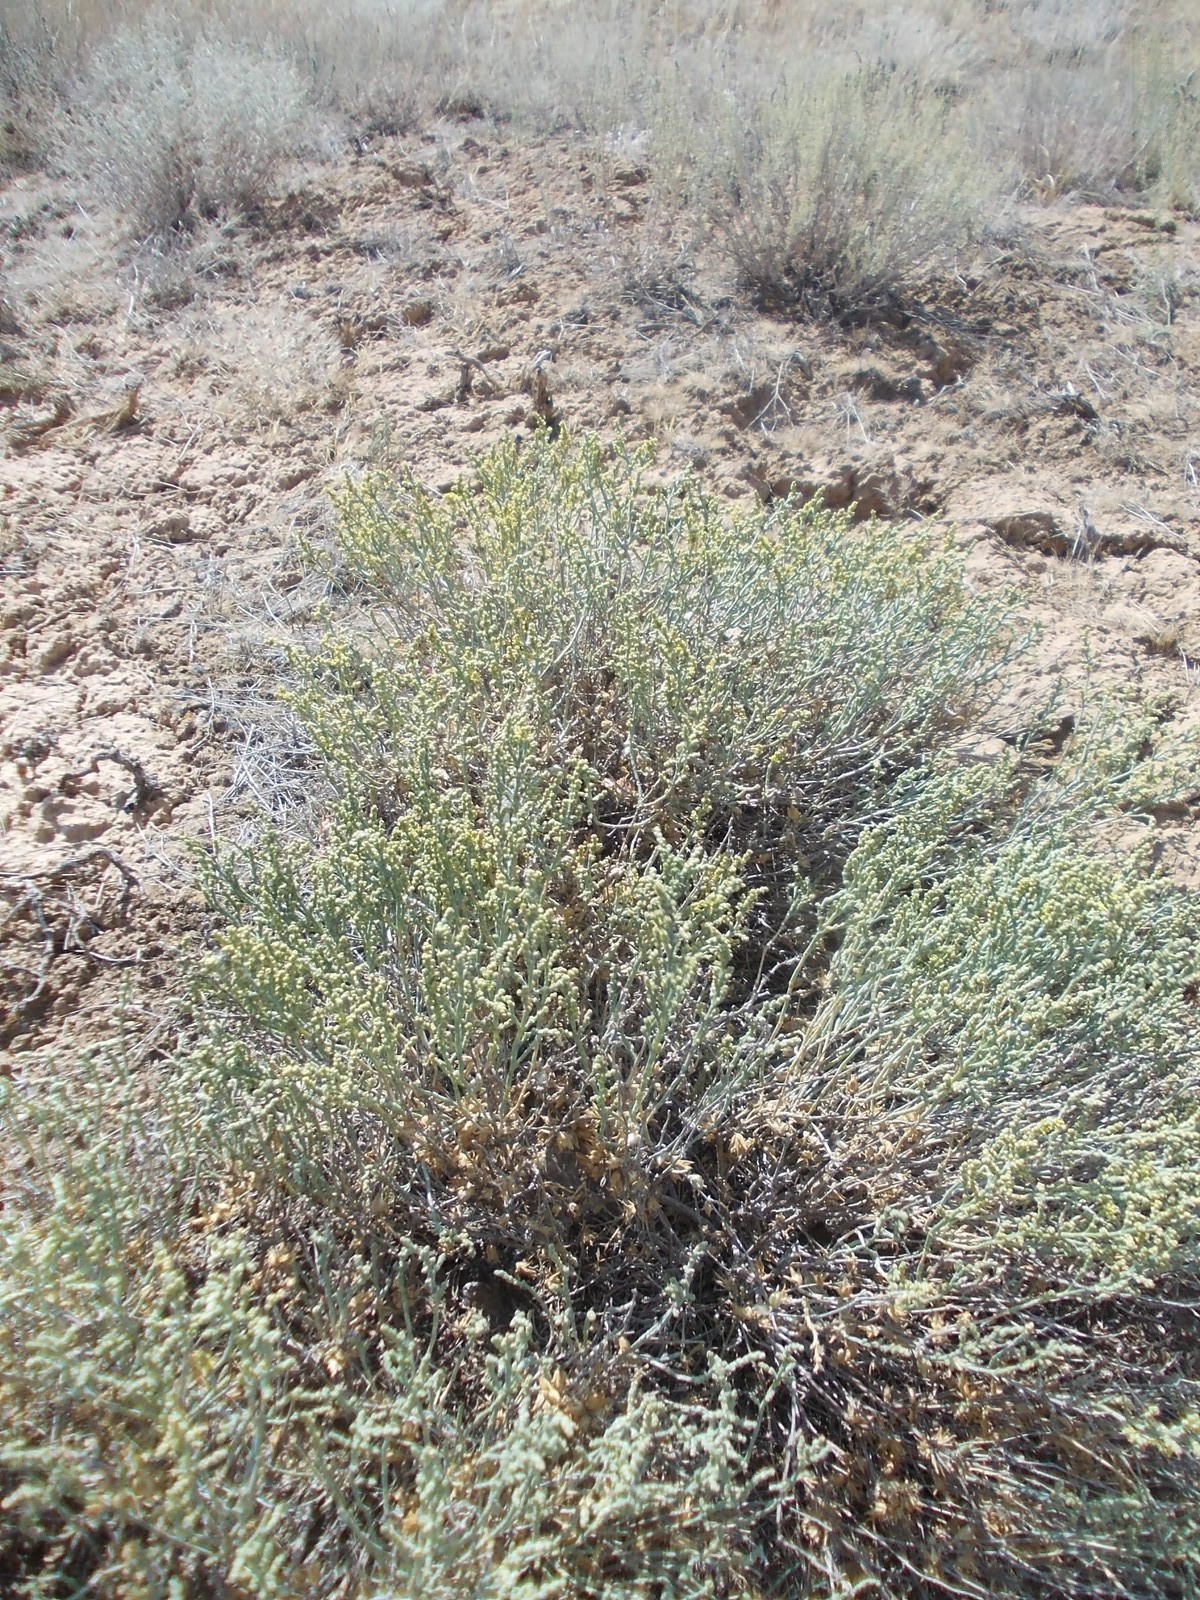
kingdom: Plantae
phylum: Tracheophyta
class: Magnoliopsida
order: Caryophyllales
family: Amaranthaceae
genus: Anabasis
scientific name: Anabasis salsa
